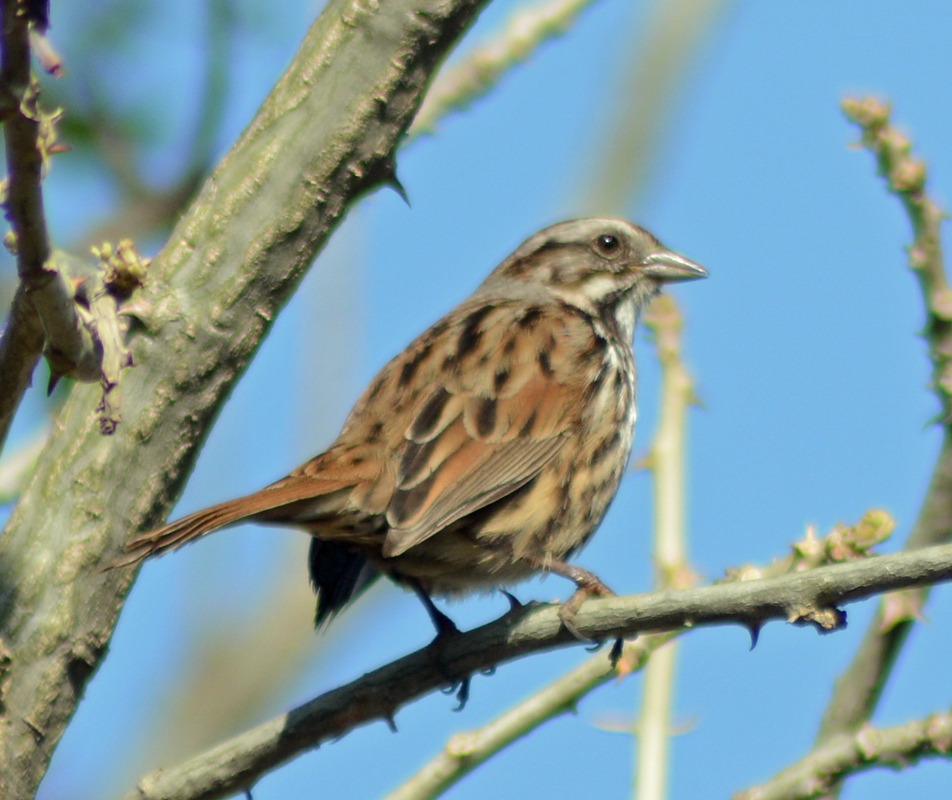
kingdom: Animalia
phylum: Chordata
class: Aves
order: Passeriformes
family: Passerellidae
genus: Melospiza
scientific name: Melospiza melodia
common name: Song sparrow
